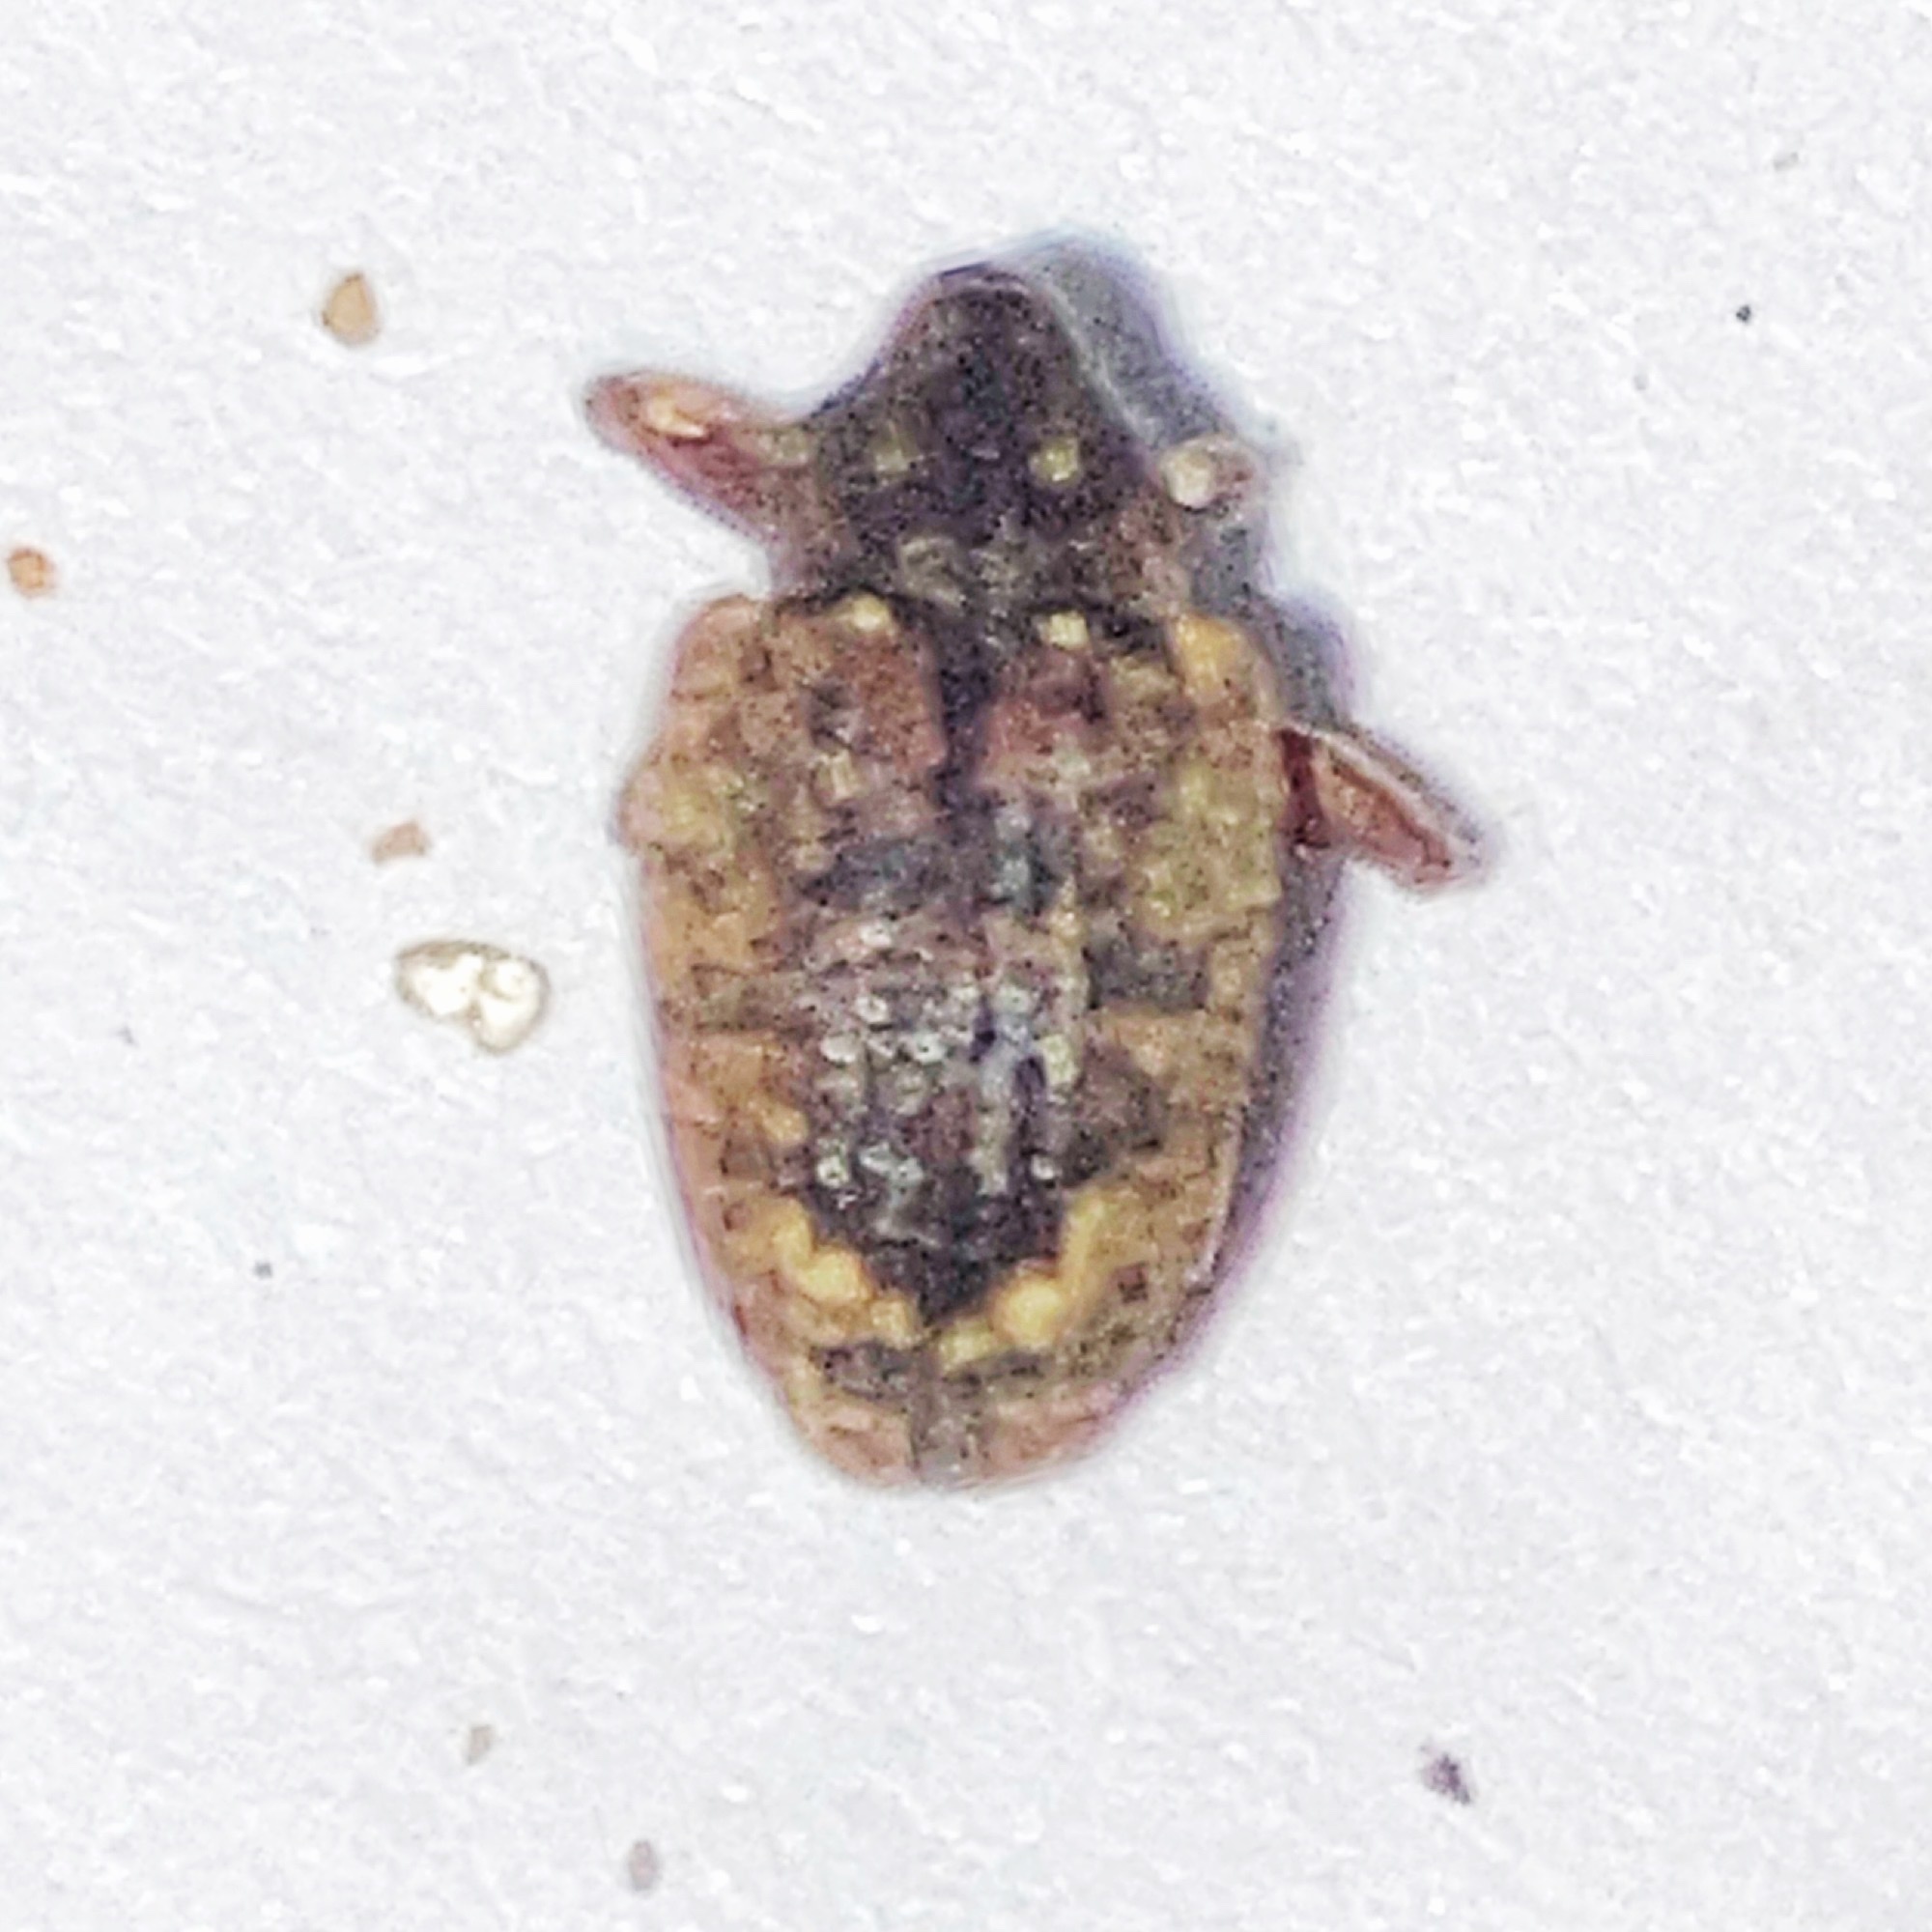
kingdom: Animalia
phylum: Arthropoda
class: Insecta
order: Coleoptera
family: Curculionidae
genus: Conotrachelus
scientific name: Conotrachelus posticatus
